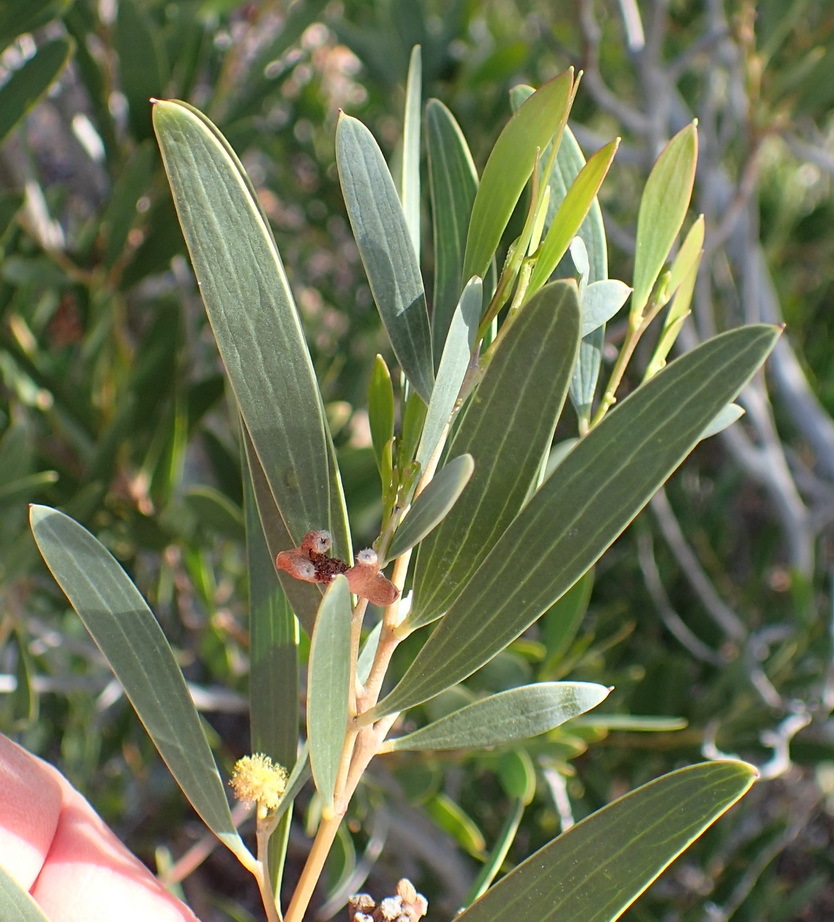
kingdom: Plantae
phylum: Tracheophyta
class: Magnoliopsida
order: Fabales
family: Fabaceae
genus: Acacia
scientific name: Acacia cyclops
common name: Coastal wattle
